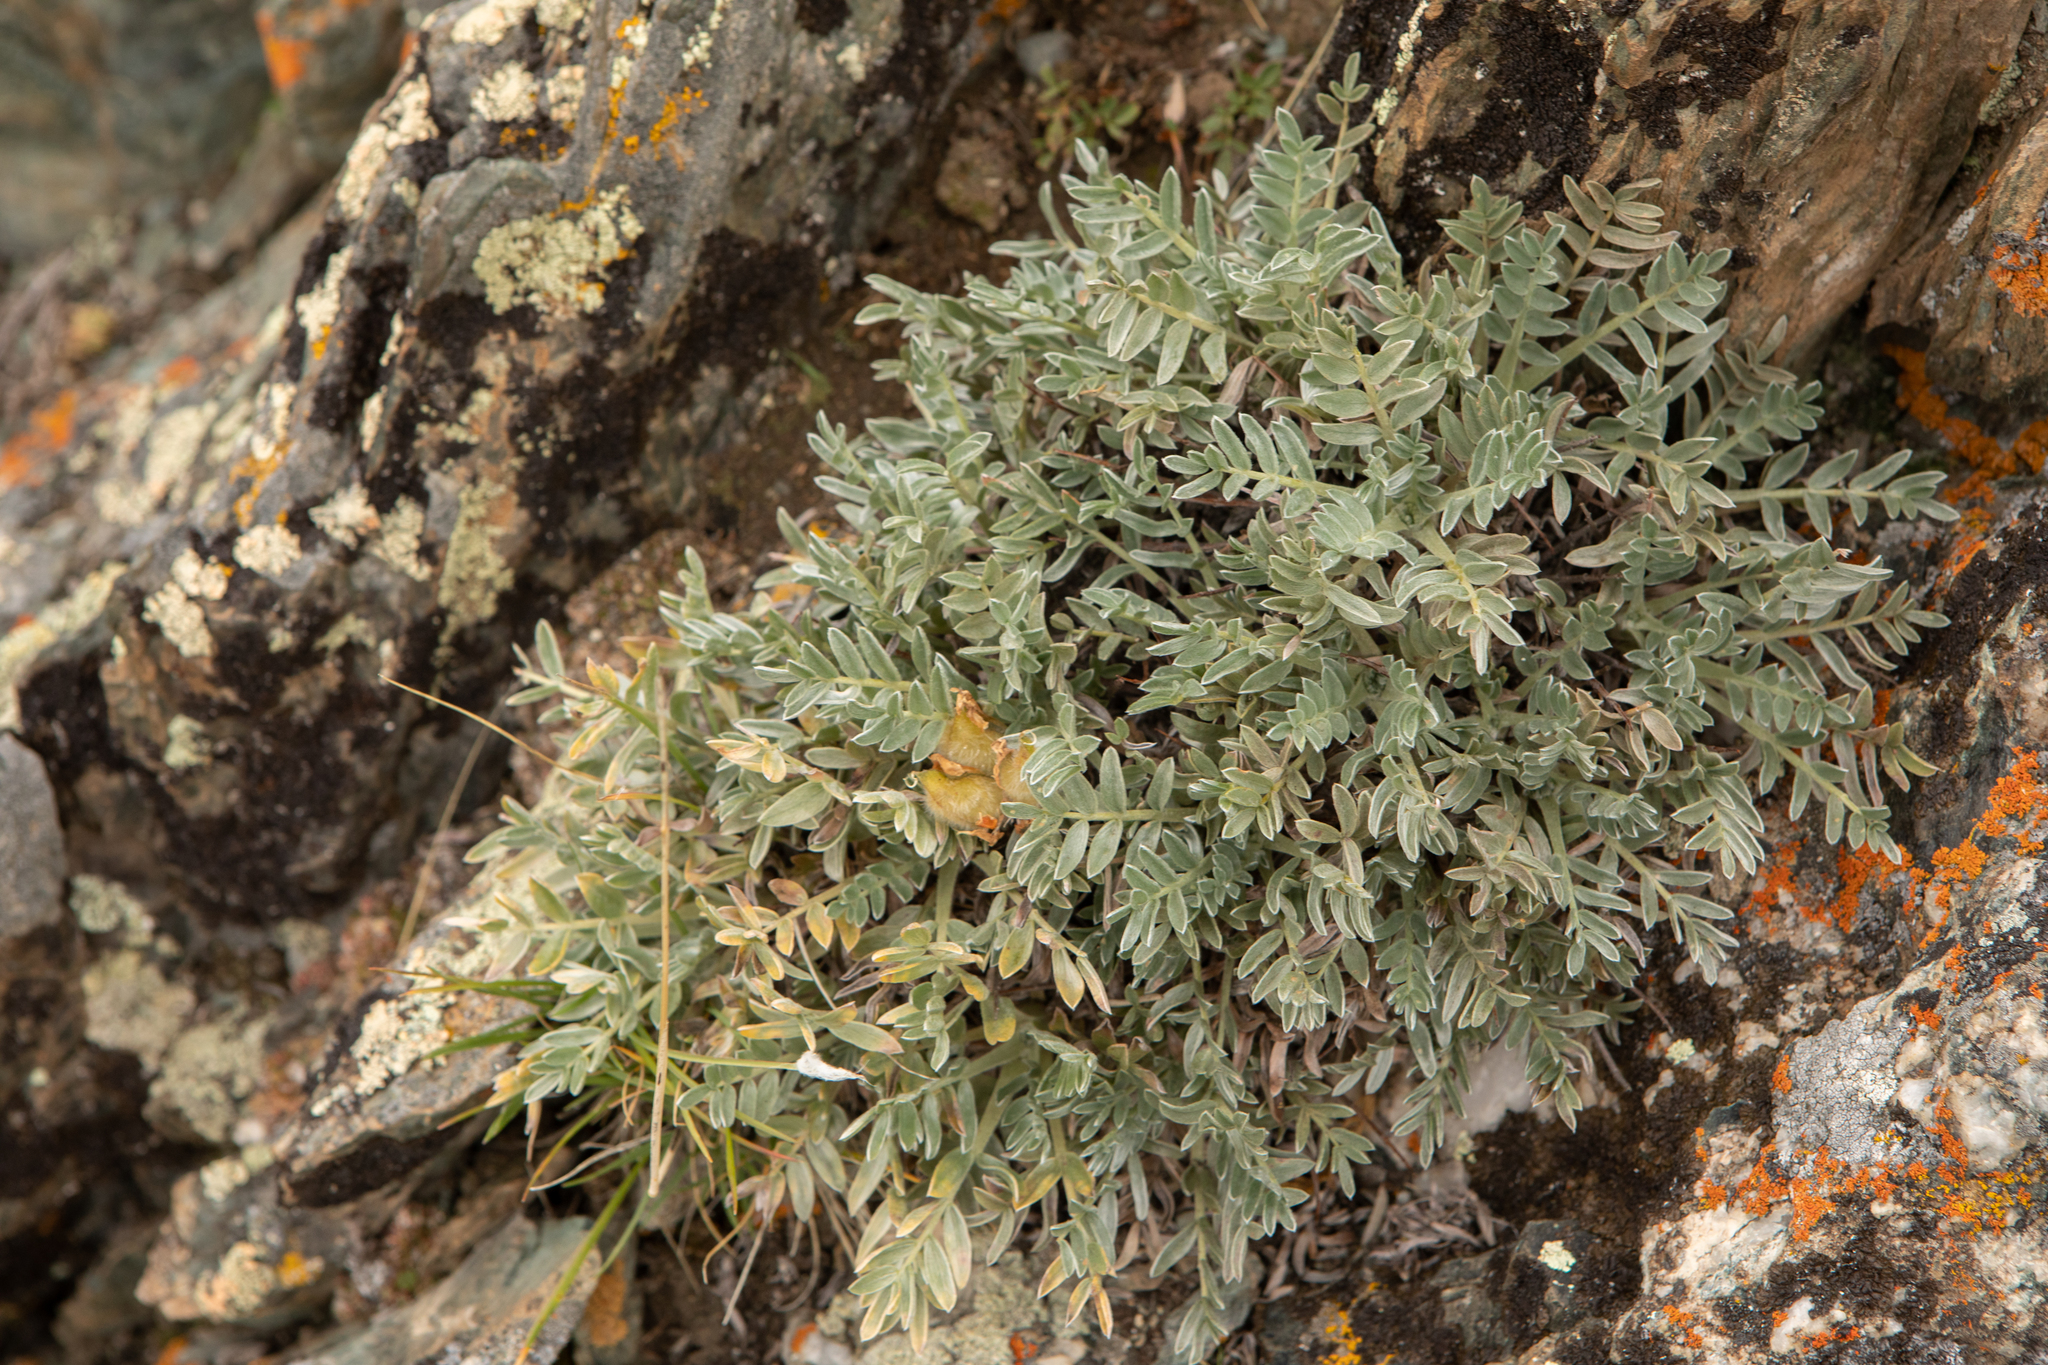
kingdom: Plantae
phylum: Tracheophyta
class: Magnoliopsida
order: Fabales
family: Fabaceae
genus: Oxytropis
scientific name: Oxytropis tragacanthoides
